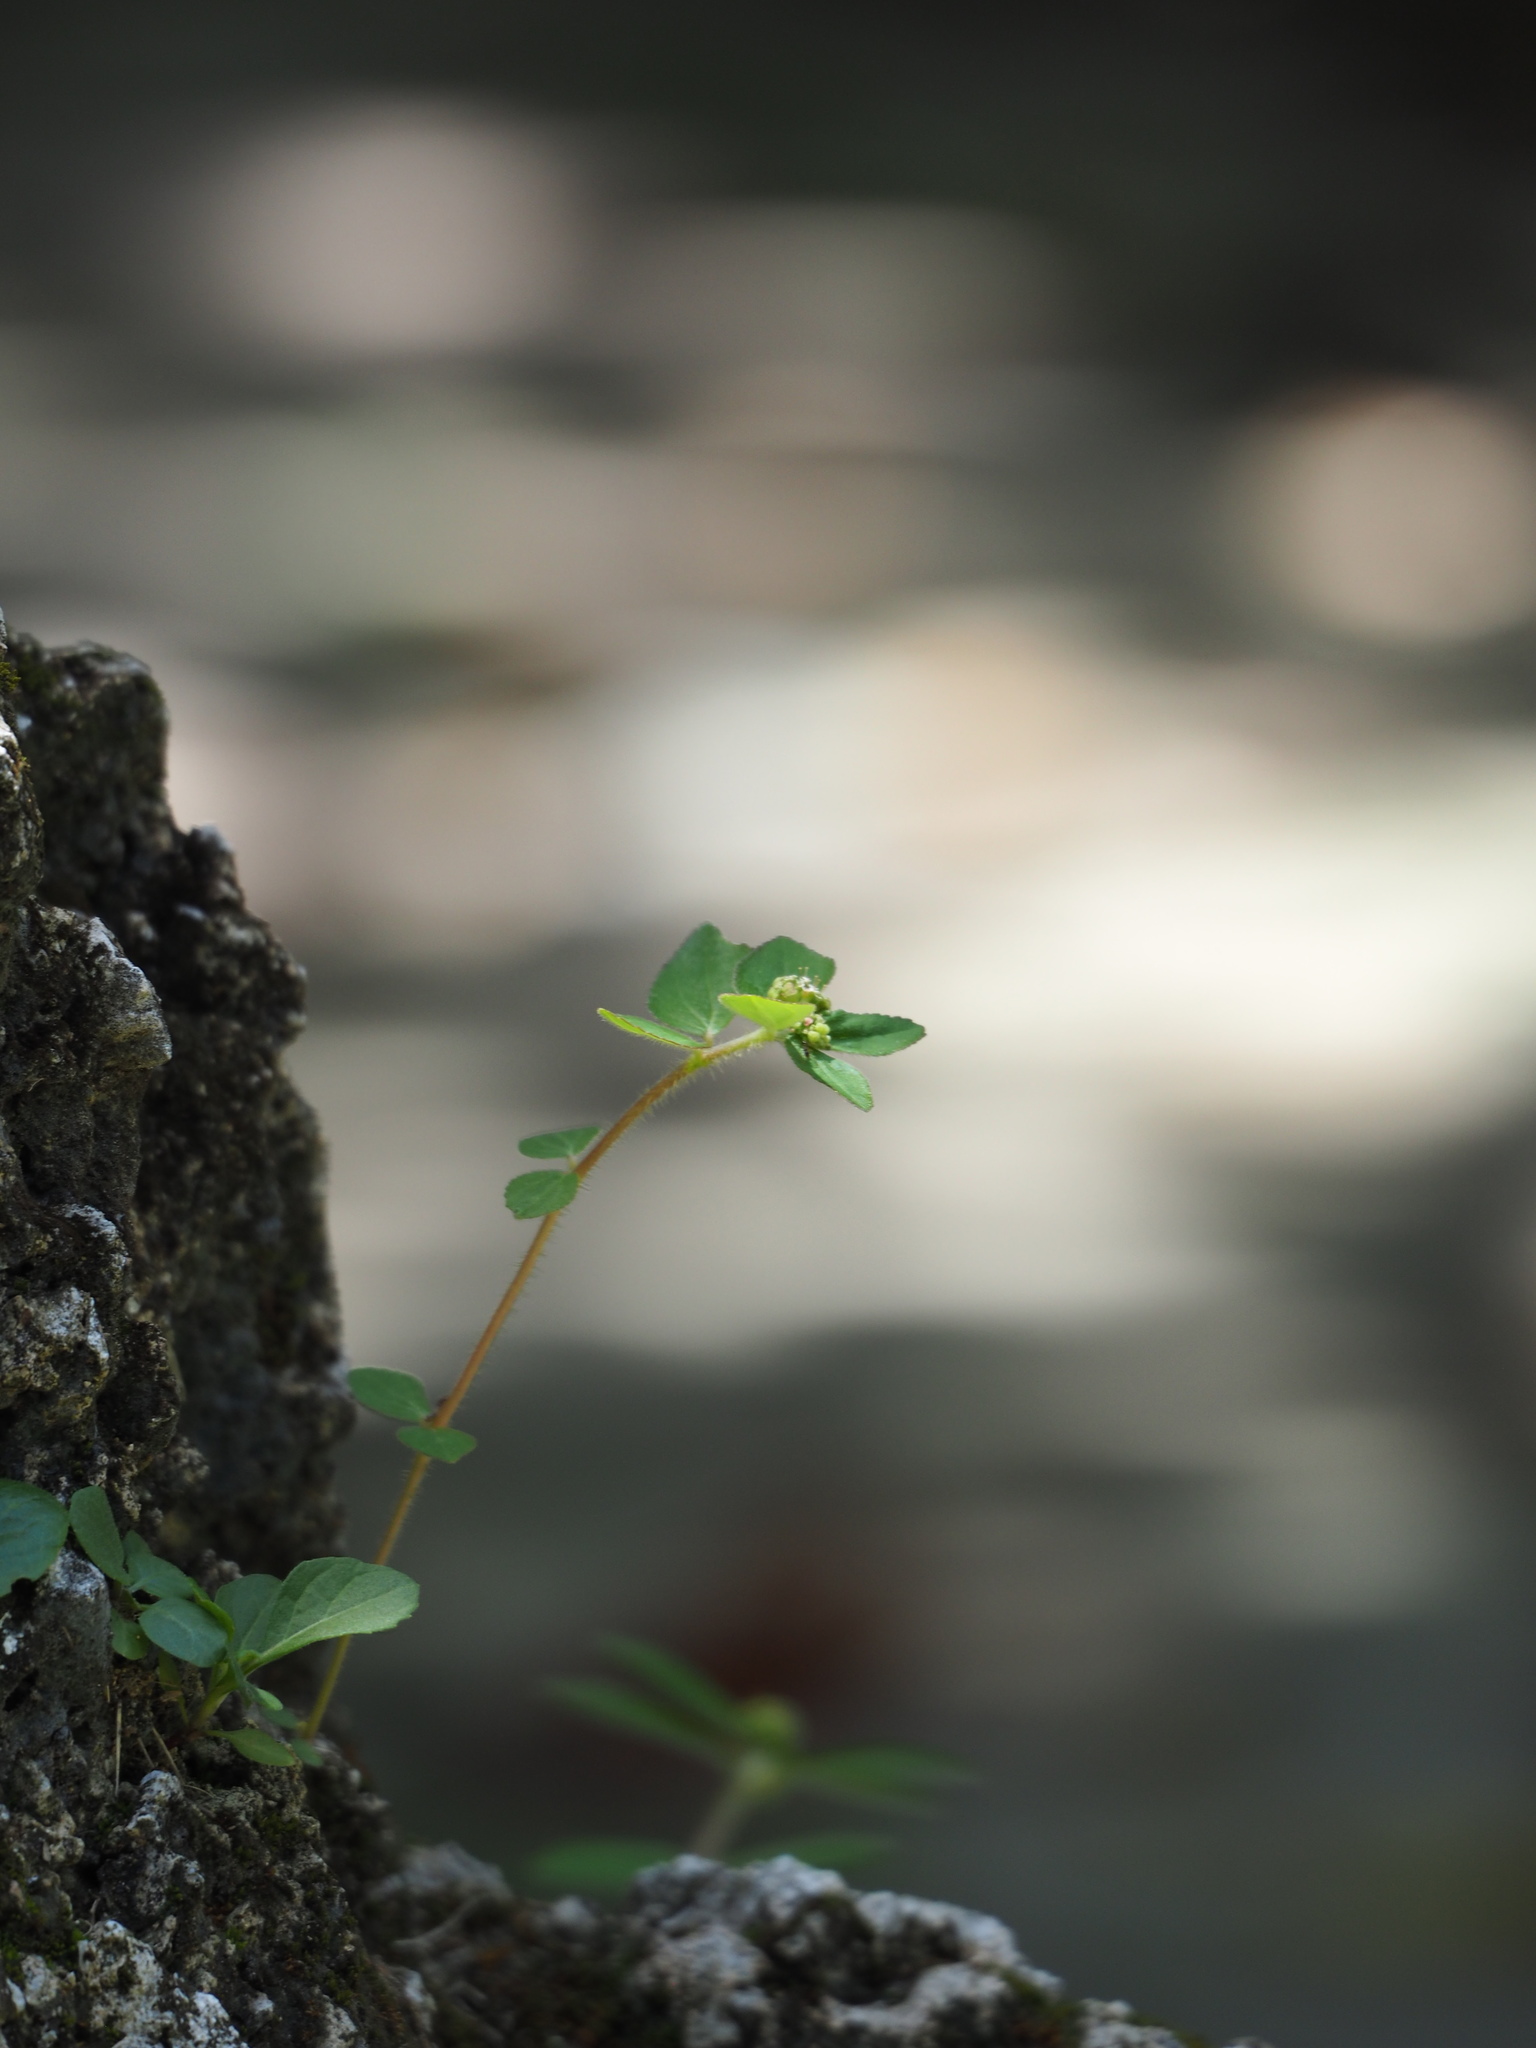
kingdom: Plantae
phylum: Tracheophyta
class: Magnoliopsida
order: Malpighiales
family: Euphorbiaceae
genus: Euphorbia
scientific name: Euphorbia hirta
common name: Pillpod sandmat
